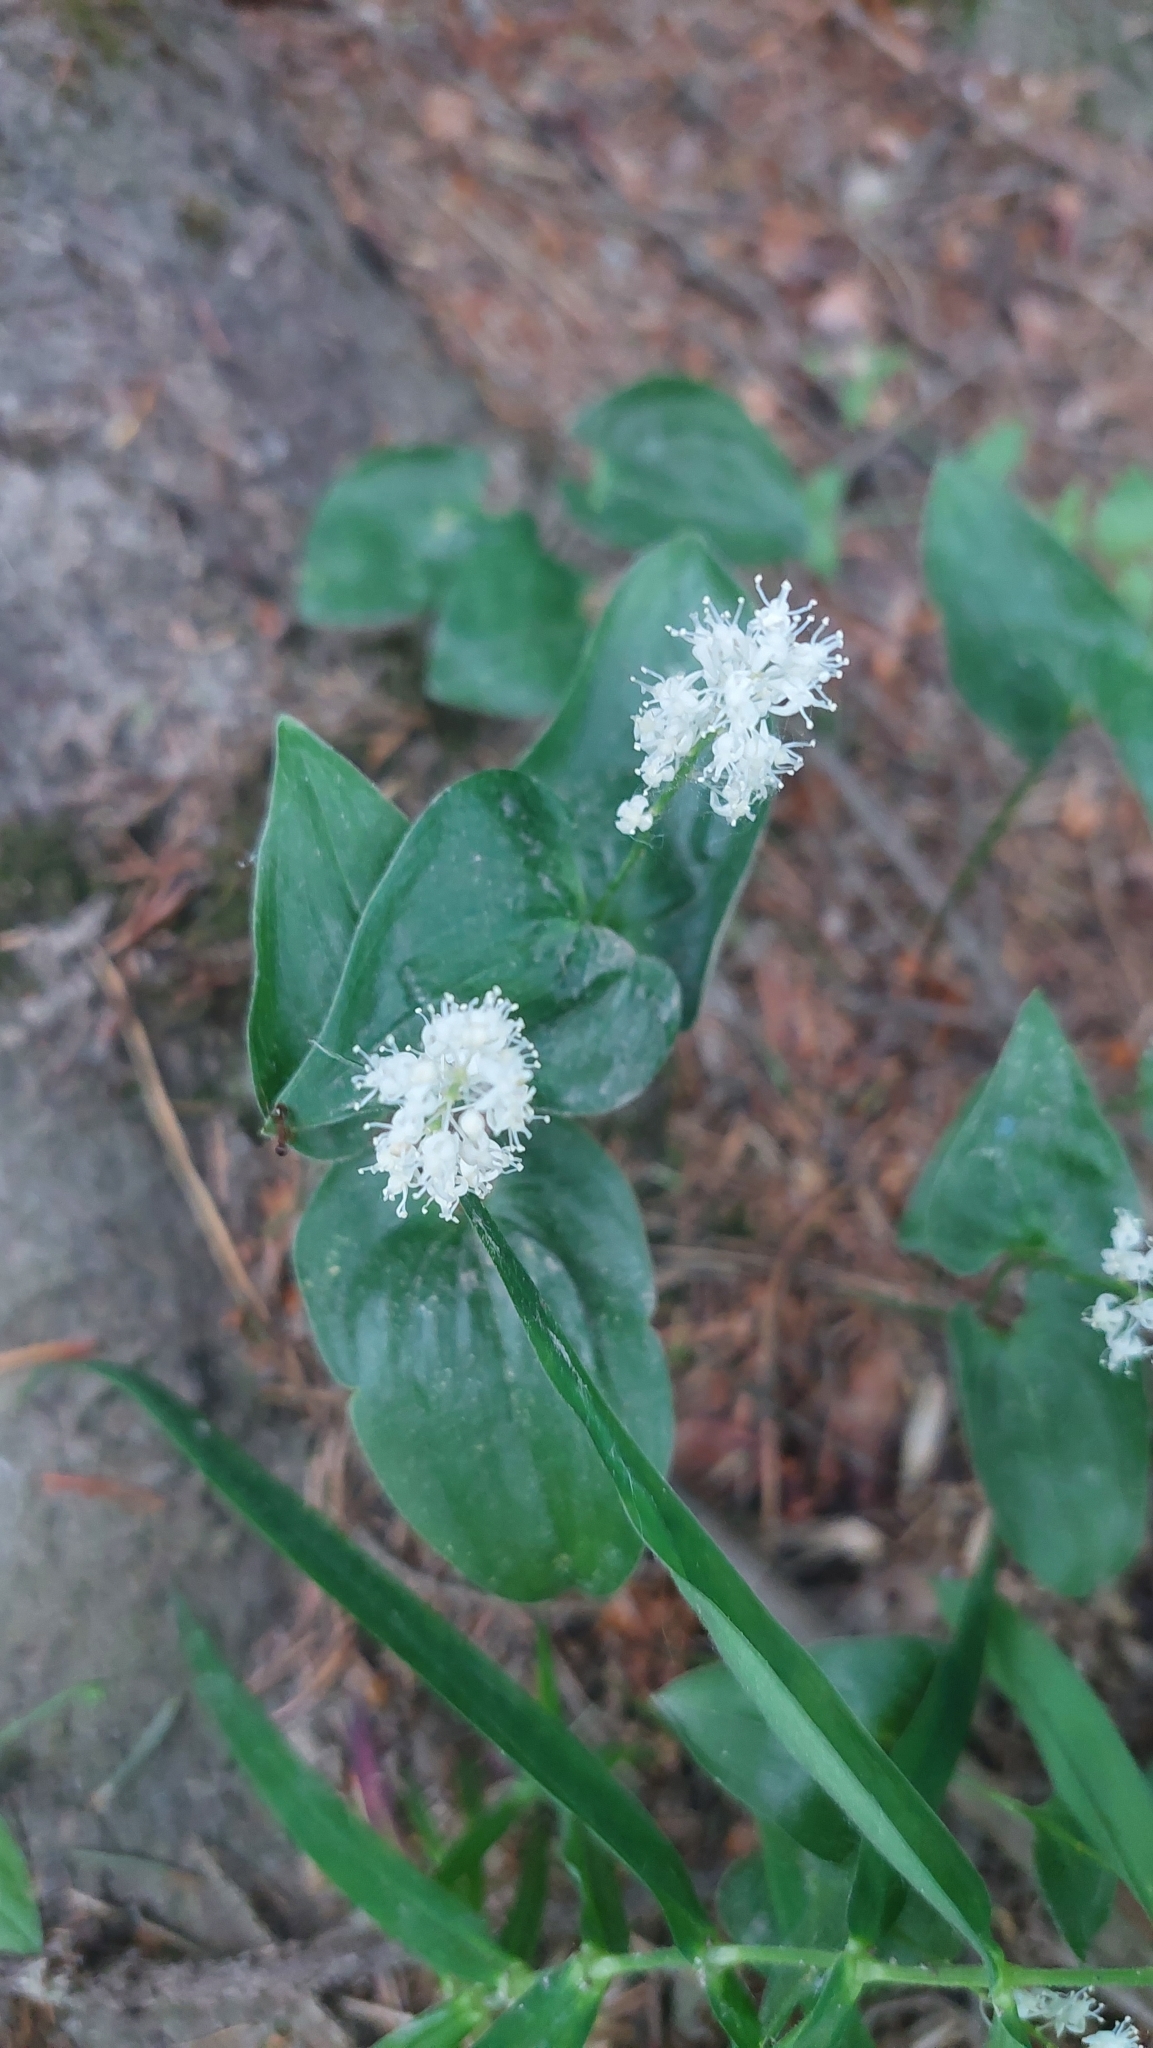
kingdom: Plantae
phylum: Tracheophyta
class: Liliopsida
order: Asparagales
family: Asparagaceae
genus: Maianthemum
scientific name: Maianthemum bifolium
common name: May lily
